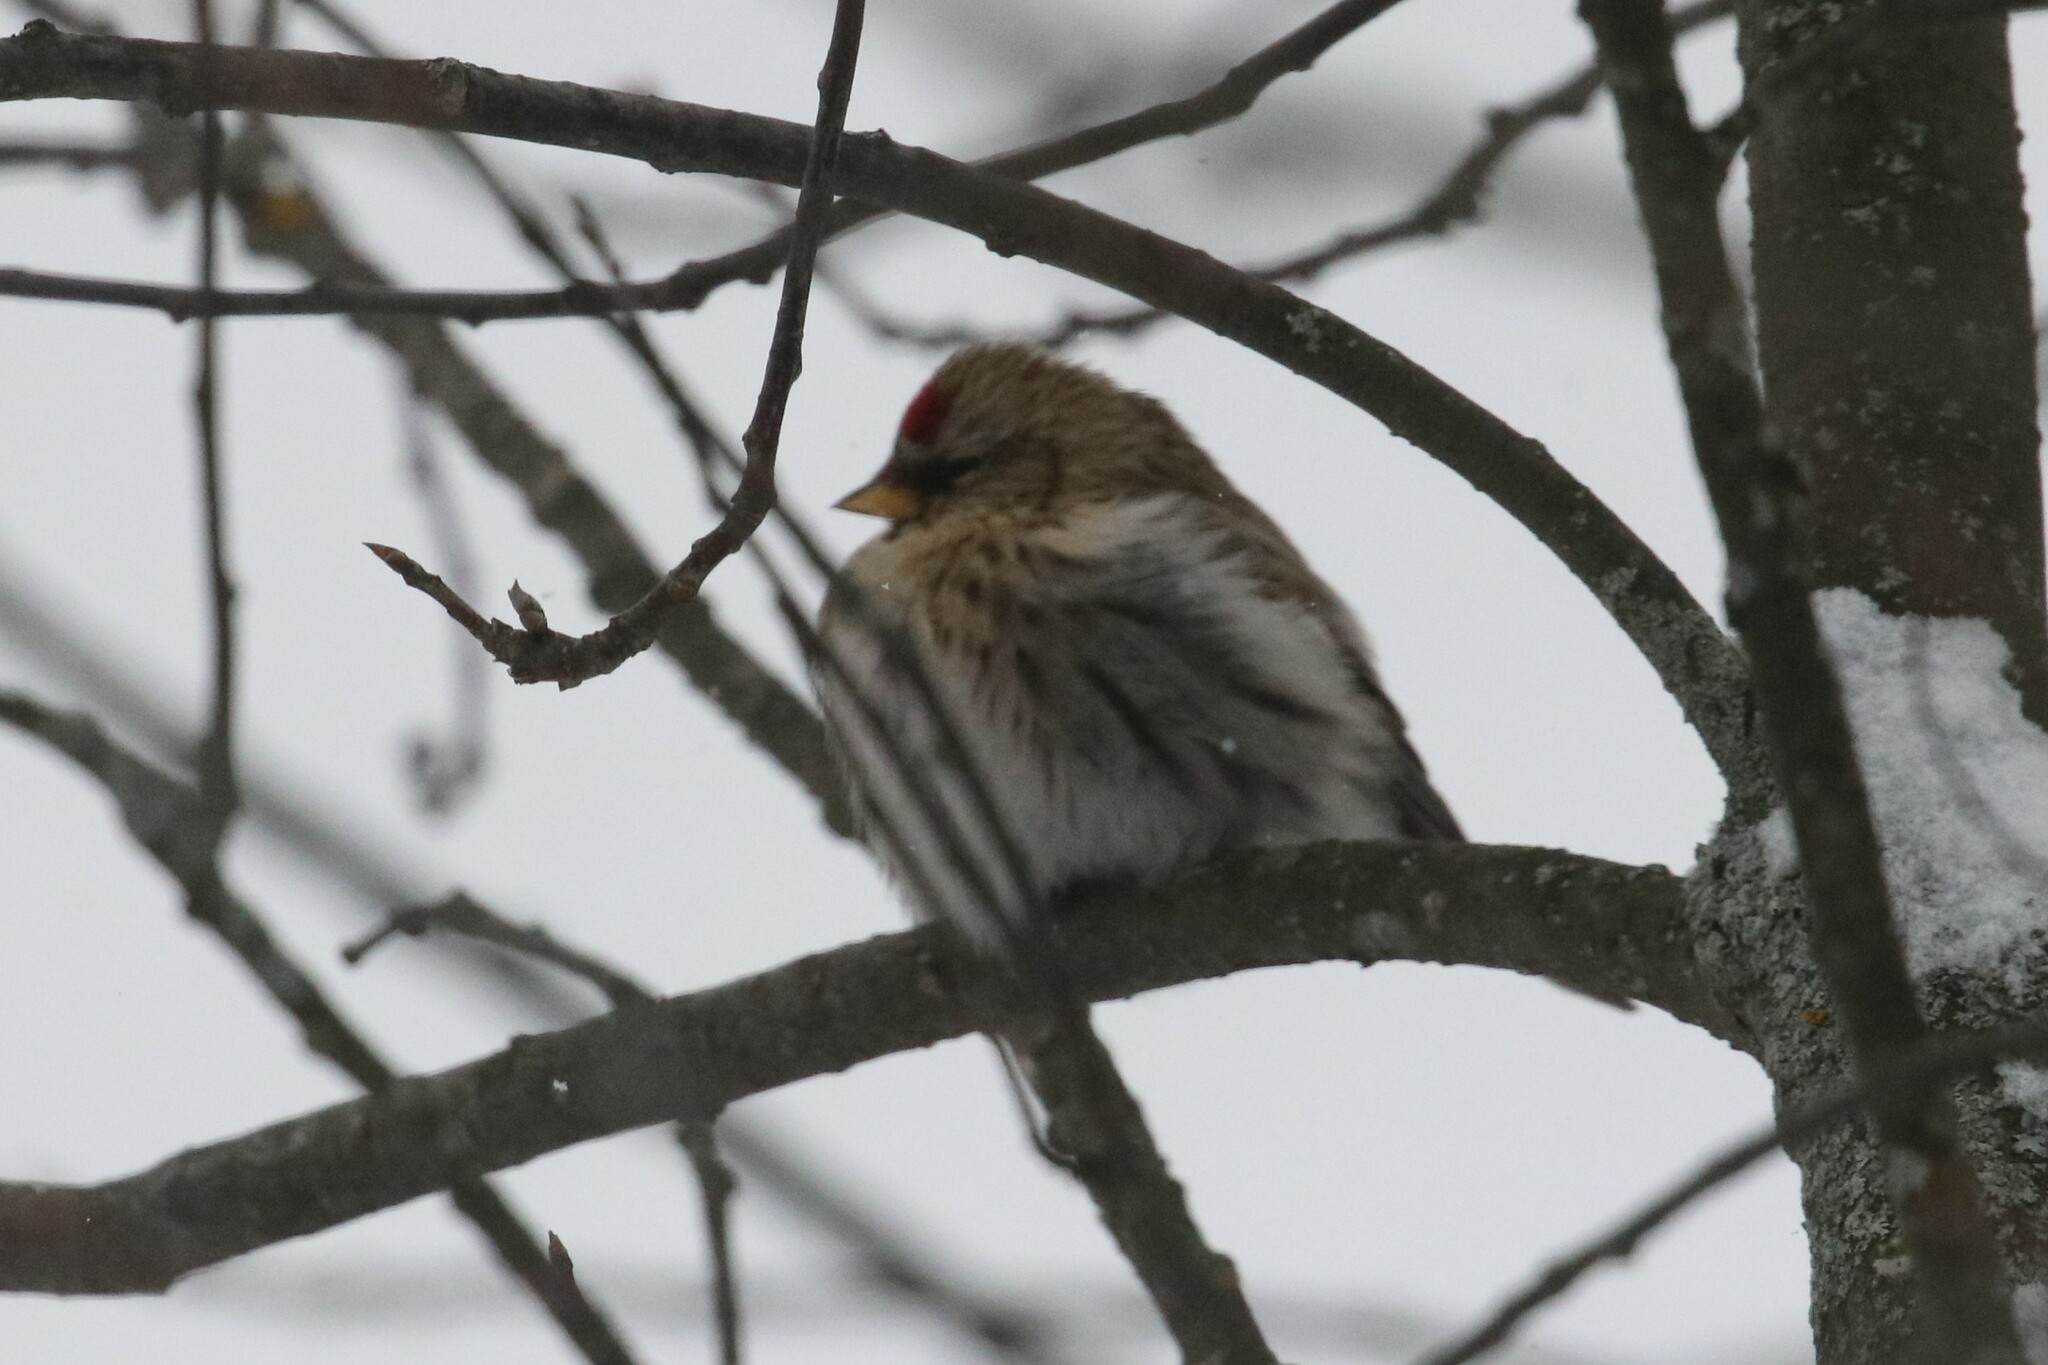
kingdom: Animalia
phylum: Chordata
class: Aves
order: Passeriformes
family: Fringillidae
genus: Acanthis
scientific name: Acanthis flammea
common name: Common redpoll
